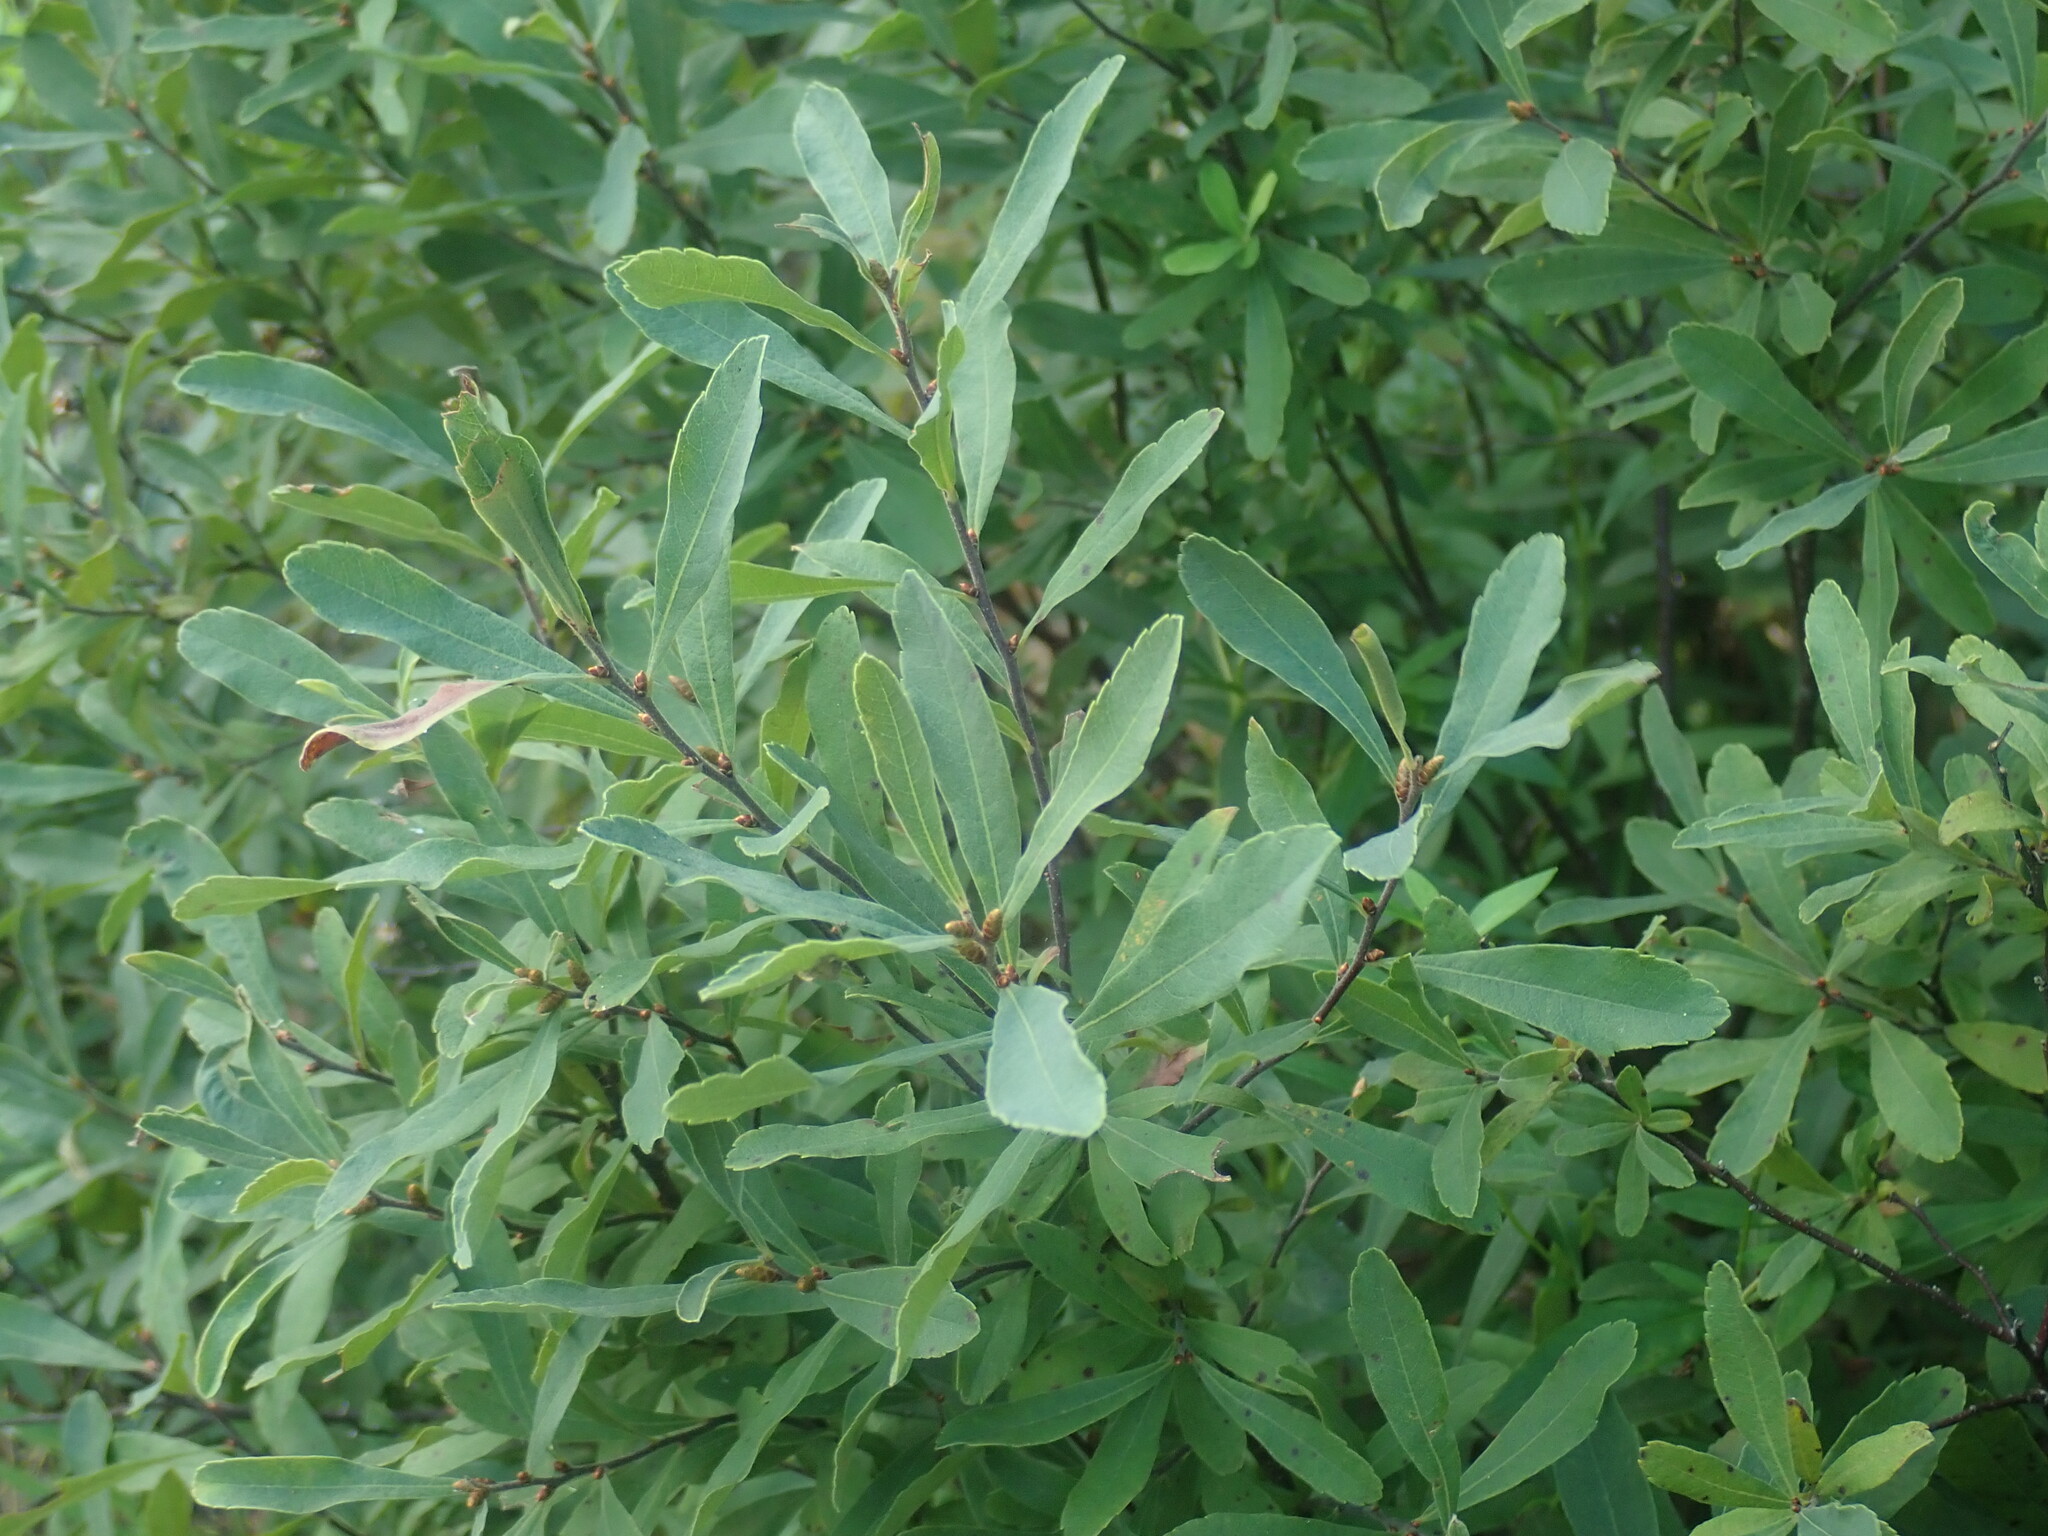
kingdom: Plantae
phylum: Tracheophyta
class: Magnoliopsida
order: Fagales
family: Myricaceae
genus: Myrica
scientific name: Myrica gale
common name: Sweet gale
